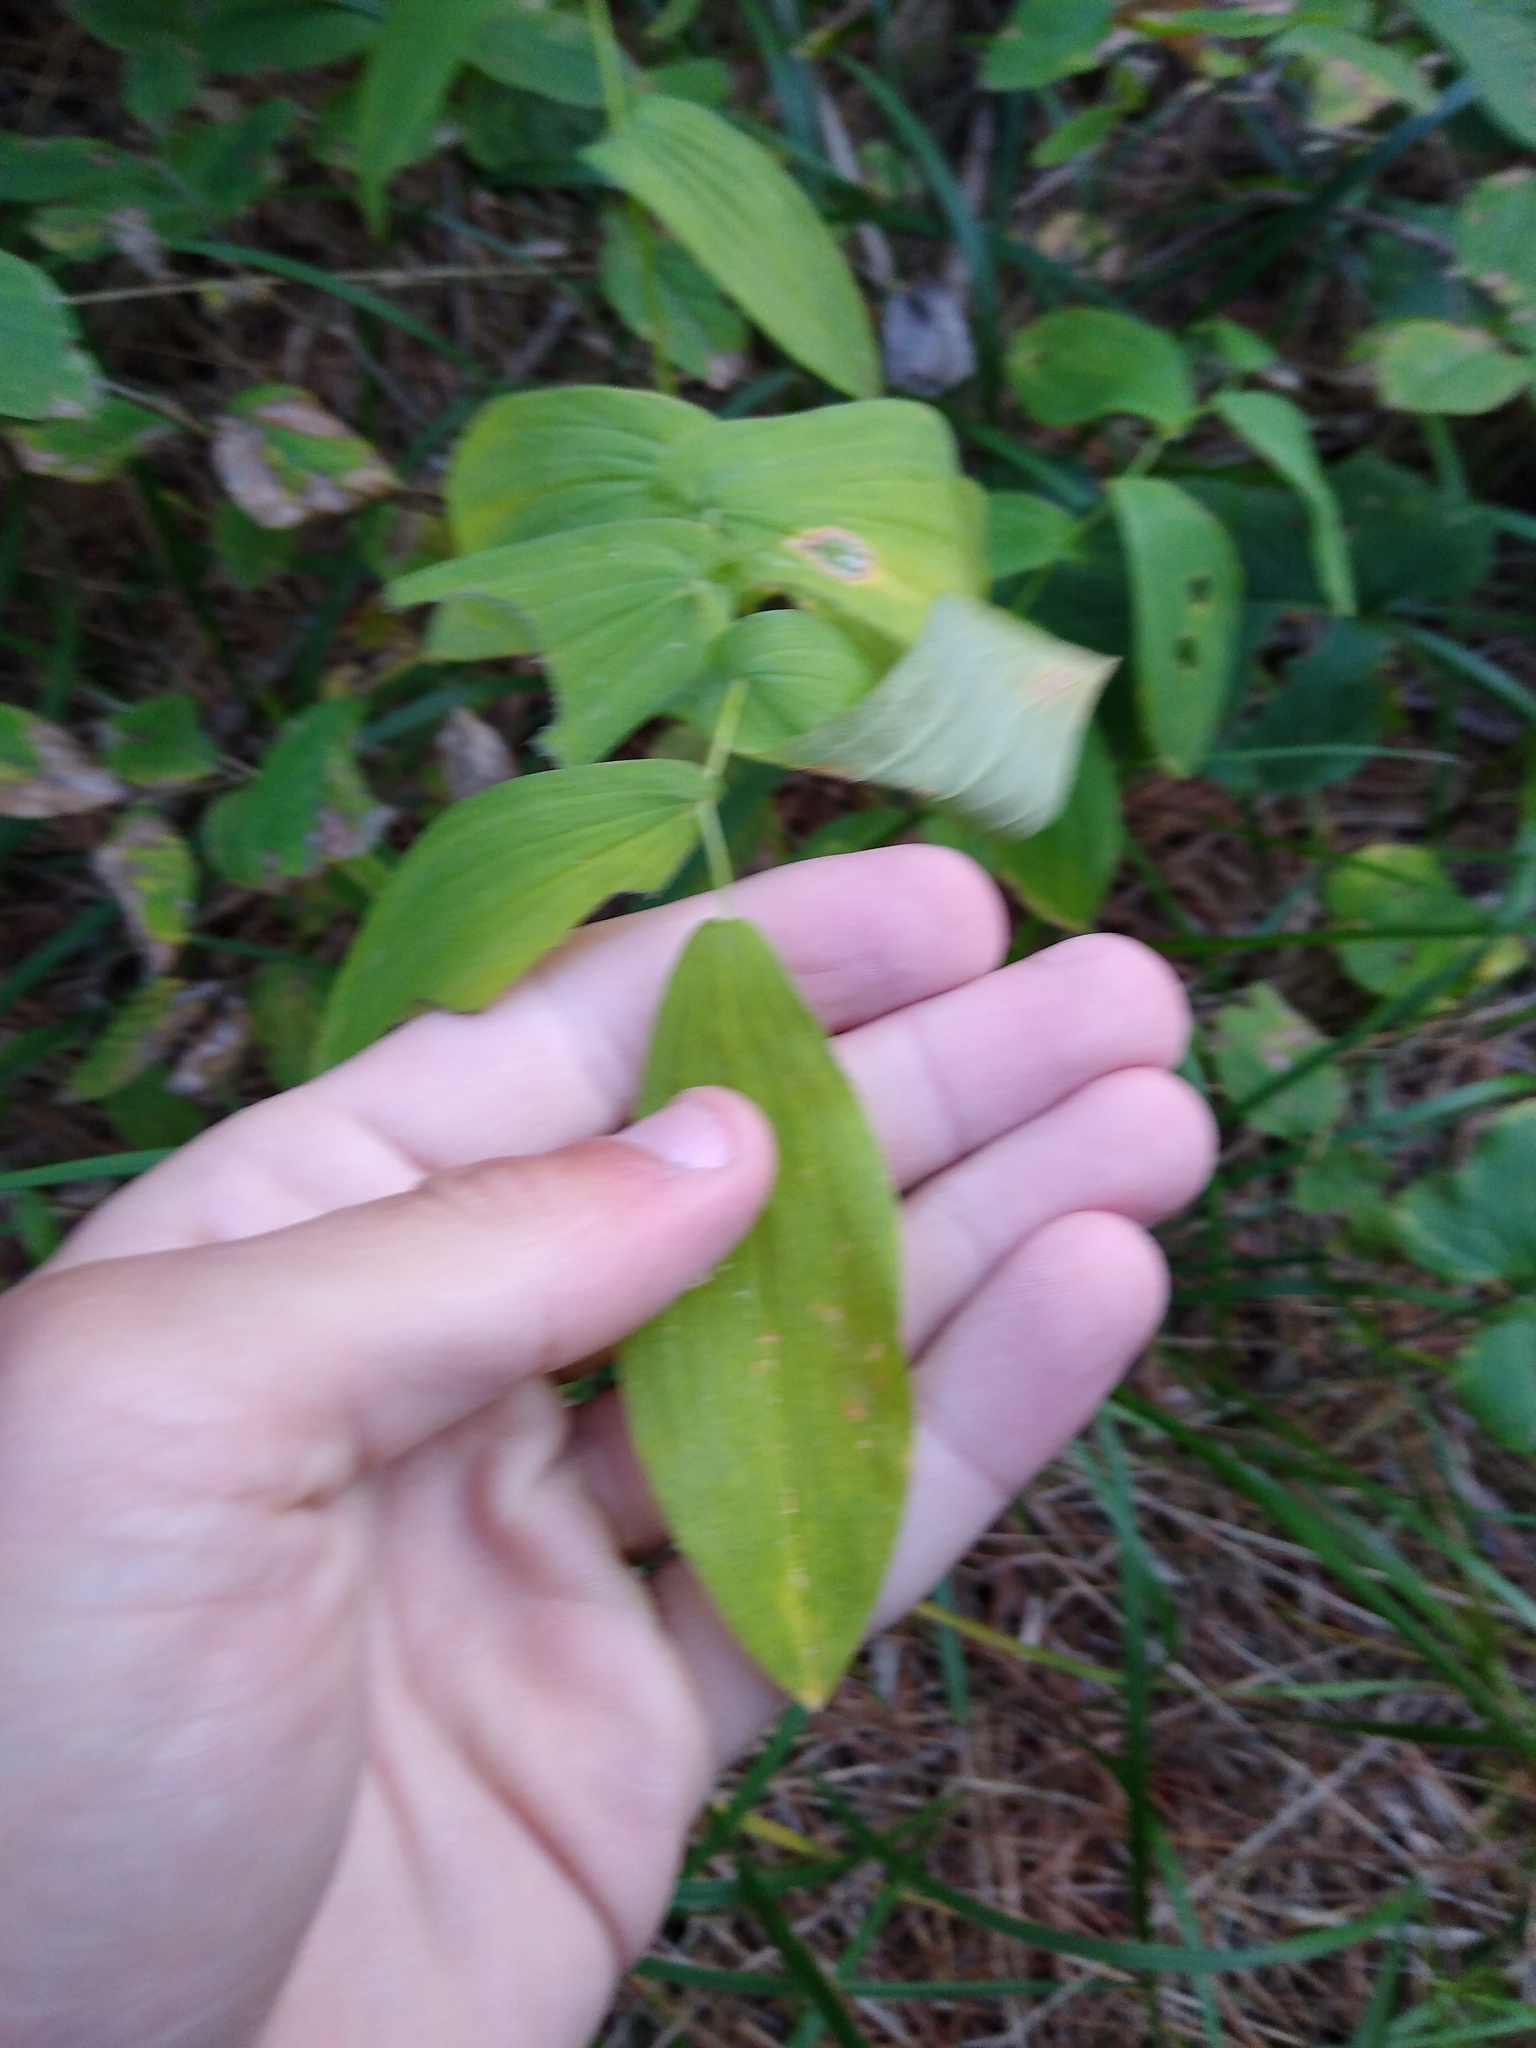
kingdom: Plantae
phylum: Tracheophyta
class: Liliopsida
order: Liliales
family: Colchicaceae
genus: Uvularia
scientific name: Uvularia grandiflora
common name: Bellwort
